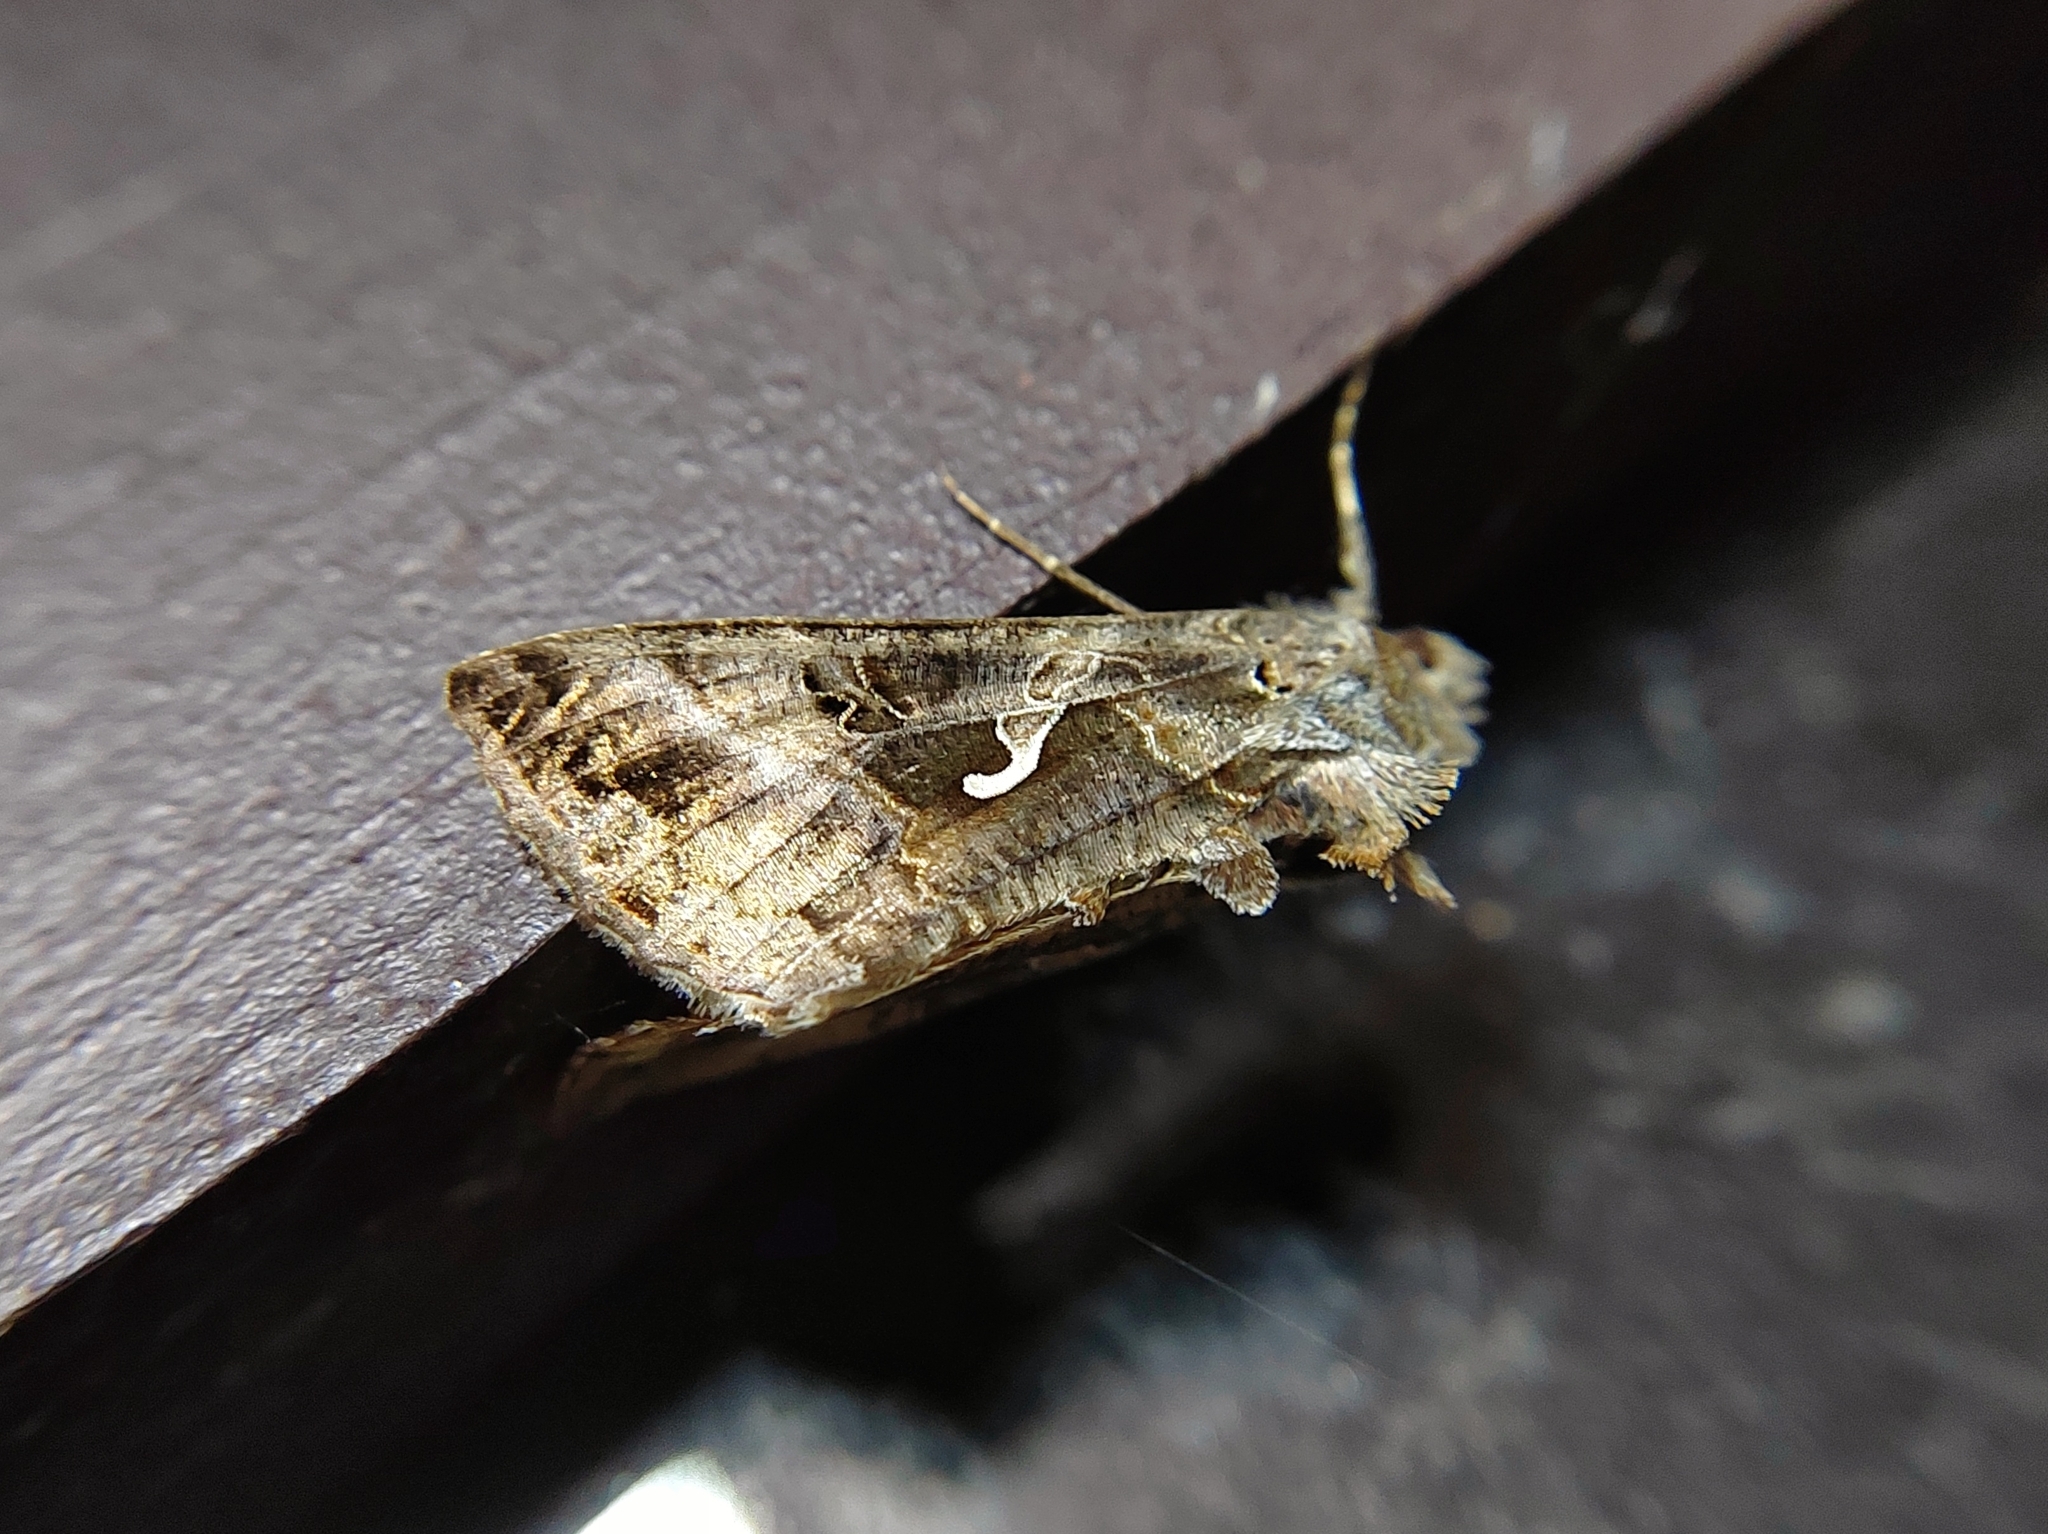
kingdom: Animalia
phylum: Arthropoda
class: Insecta
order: Lepidoptera
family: Noctuidae
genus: Autographa
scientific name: Autographa gamma
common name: Silver y
